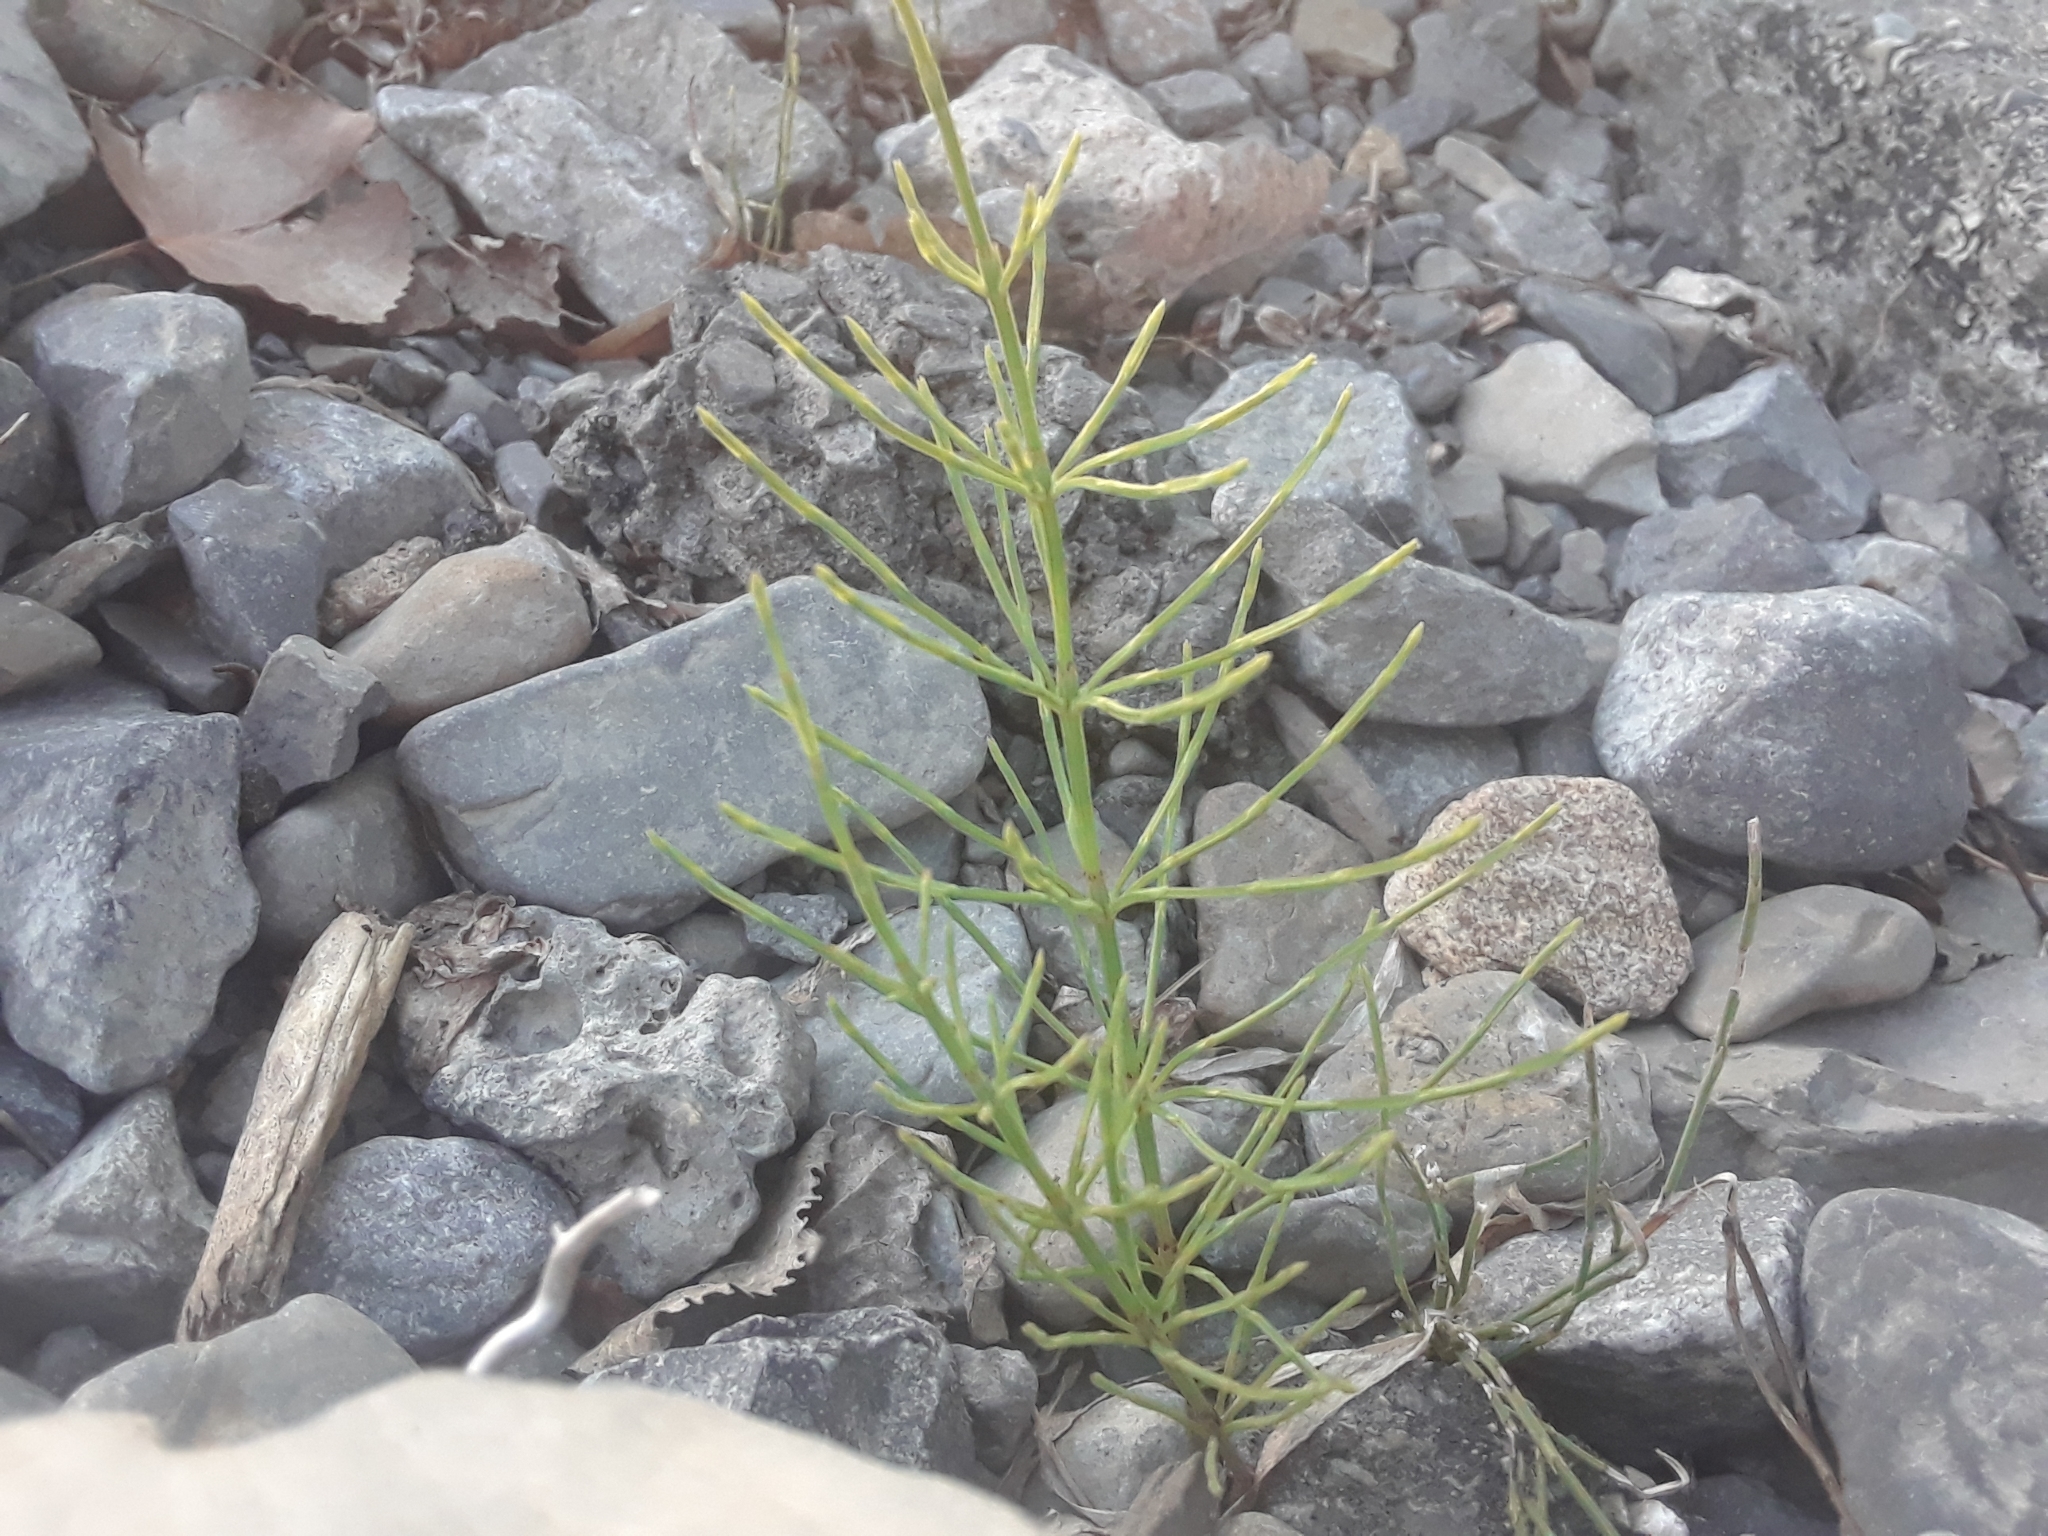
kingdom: Plantae
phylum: Tracheophyta
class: Polypodiopsida
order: Equisetales
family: Equisetaceae
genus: Equisetum
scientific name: Equisetum arvense
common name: Field horsetail
